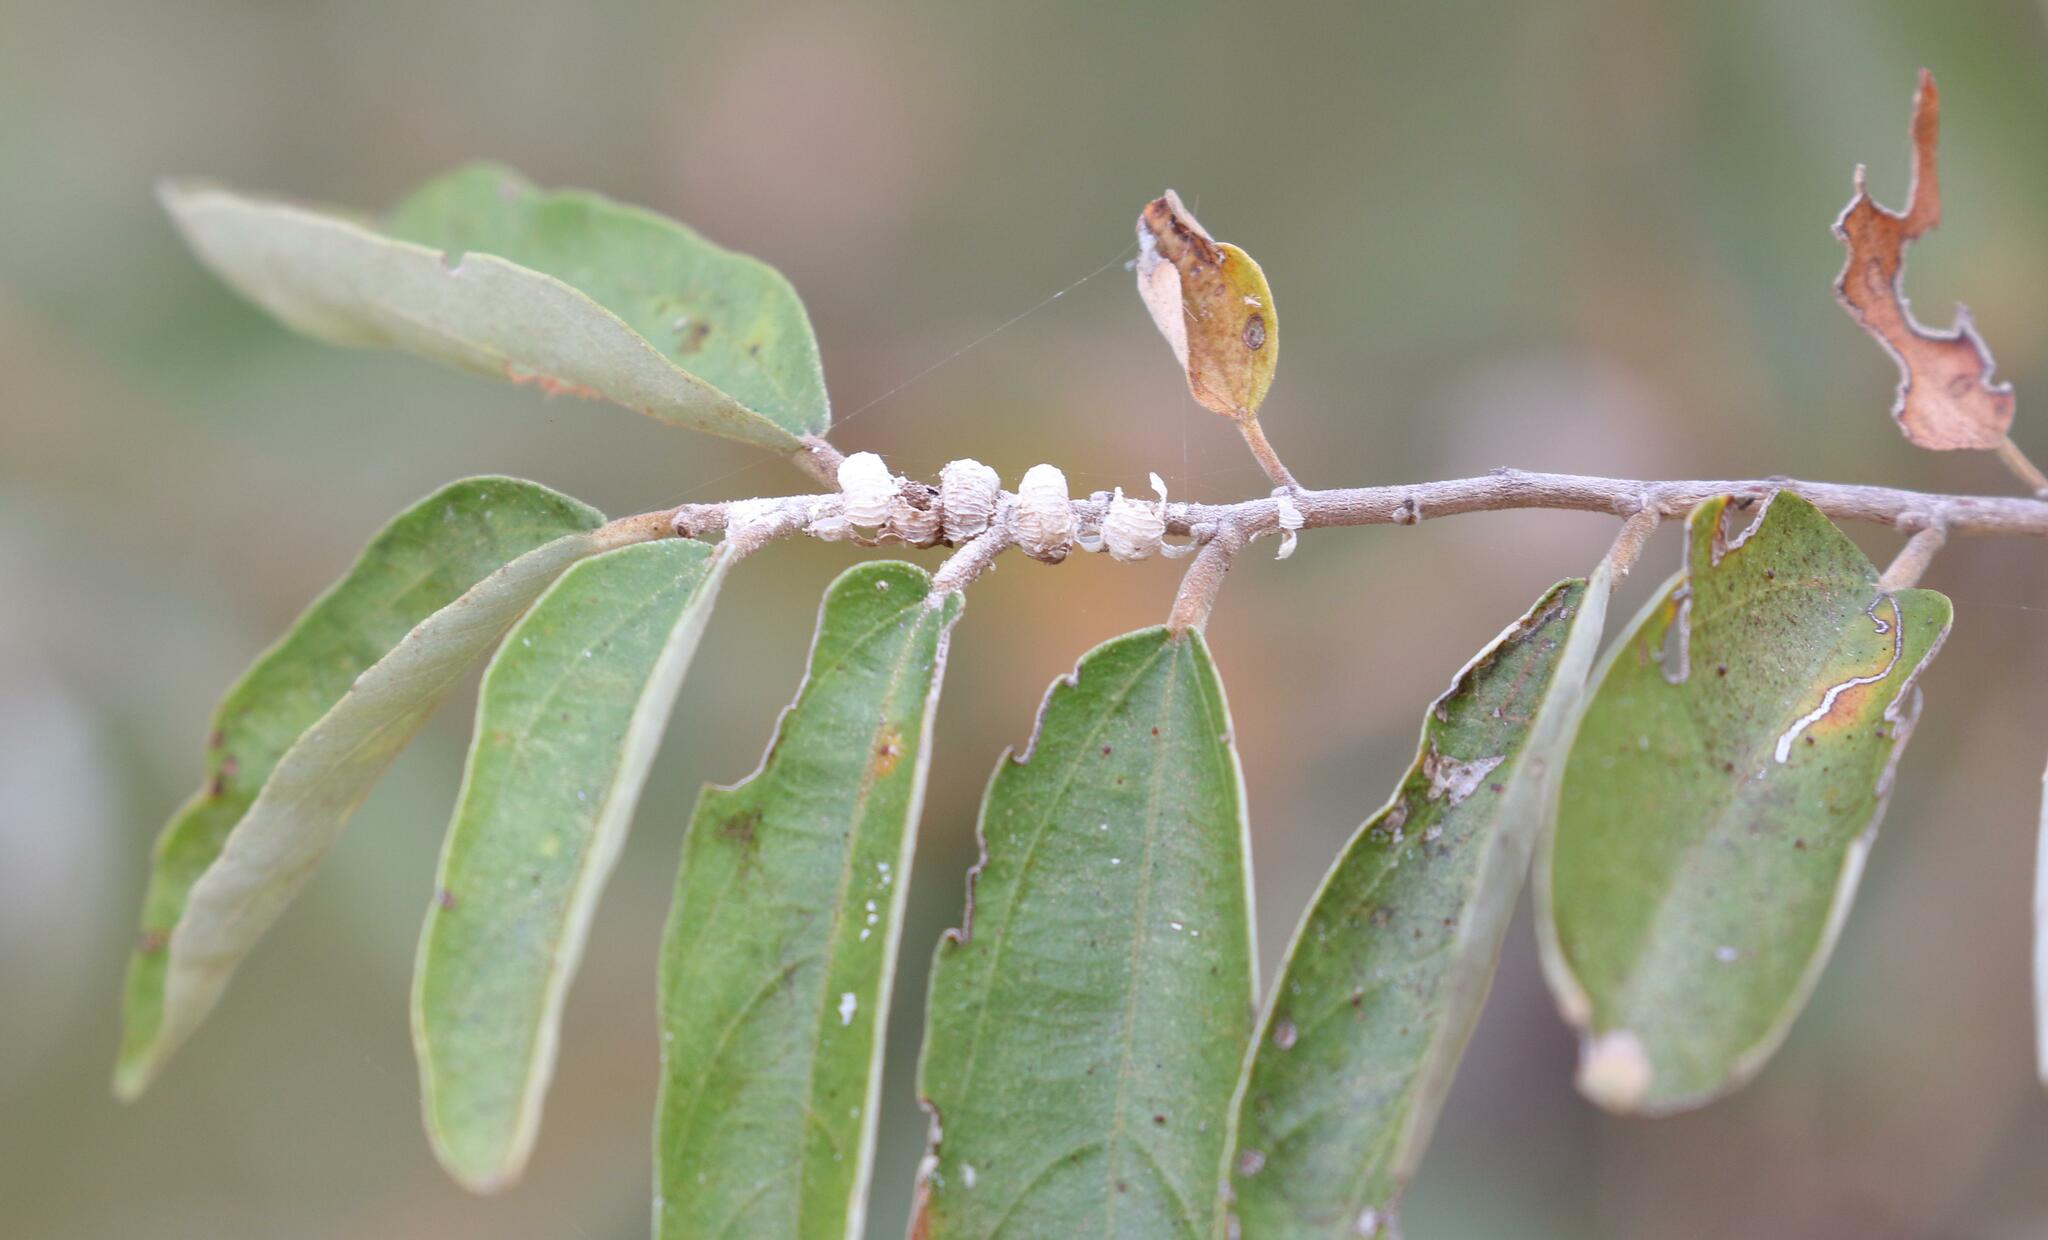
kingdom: Plantae
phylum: Tracheophyta
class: Magnoliopsida
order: Malvales
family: Malvaceae
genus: Grewia
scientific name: Grewia bicolor
